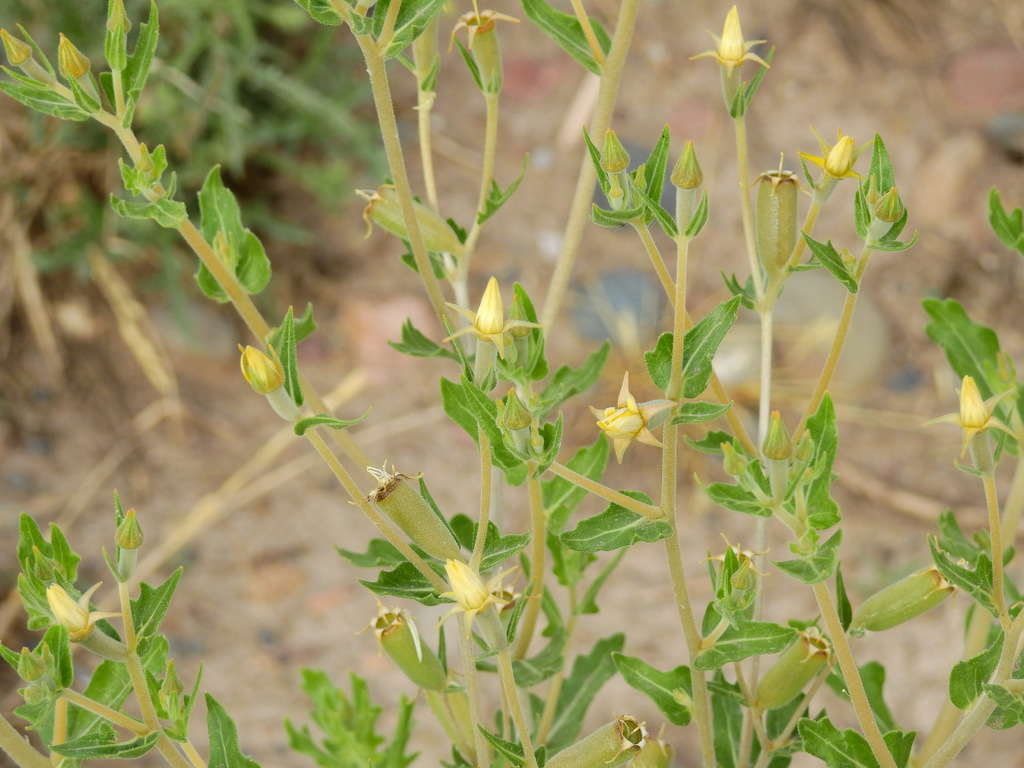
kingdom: Plantae
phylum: Tracheophyta
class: Magnoliopsida
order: Cornales
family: Loasaceae
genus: Mentzelia
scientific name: Mentzelia albescens
